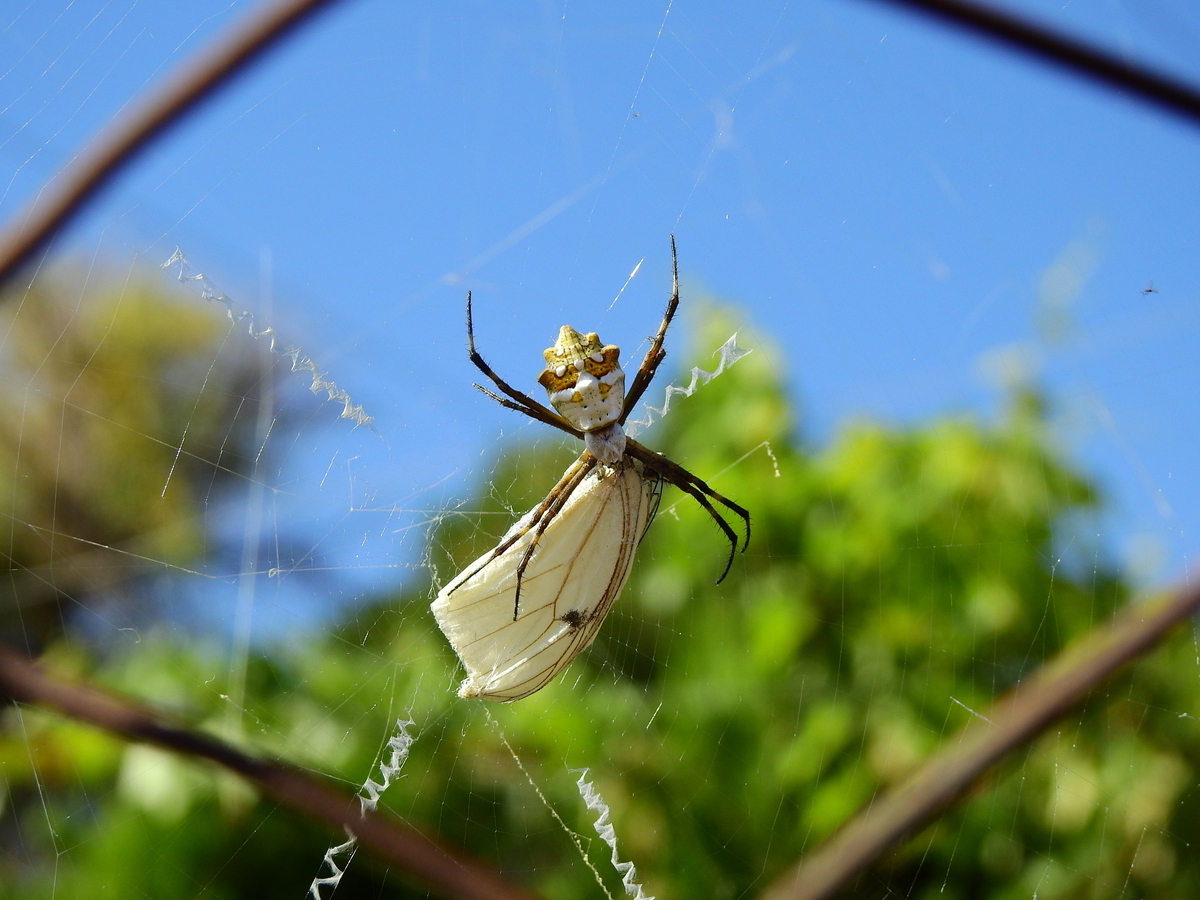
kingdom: Animalia
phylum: Arthropoda
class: Arachnida
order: Araneae
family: Araneidae
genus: Argiope
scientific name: Argiope argentata
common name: Orb weavers
